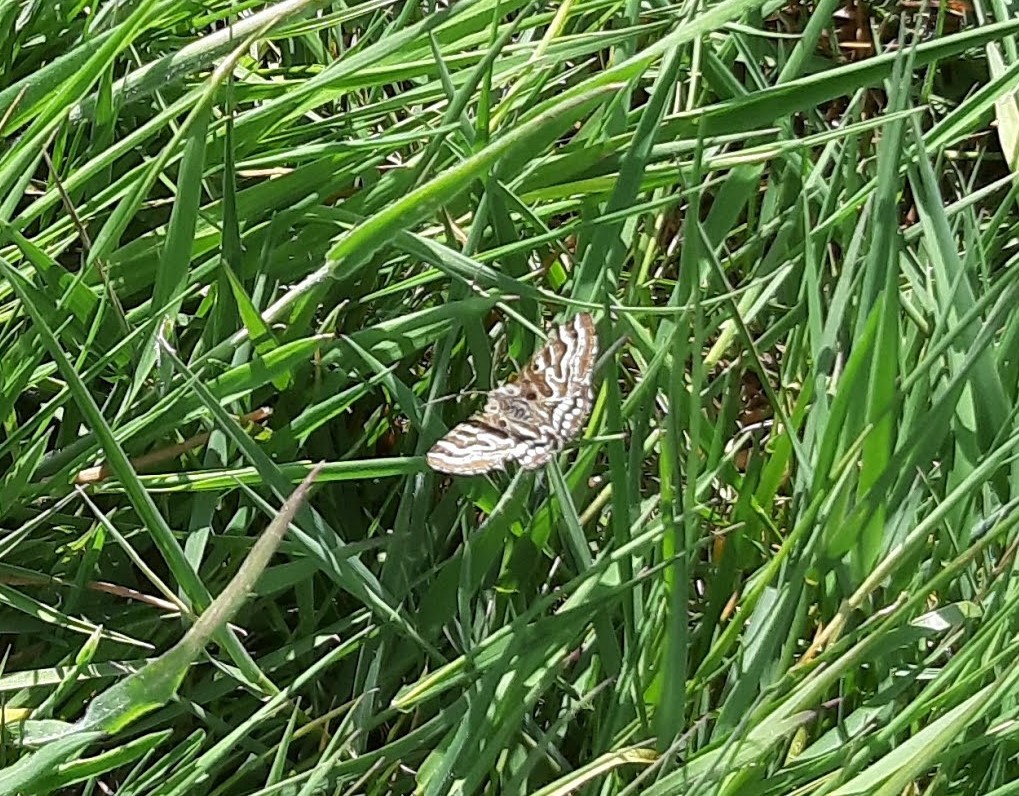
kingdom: Animalia
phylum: Arthropoda
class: Insecta
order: Lepidoptera
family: Erebidae
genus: Callistege
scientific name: Callistege mi
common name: Mother shipton
